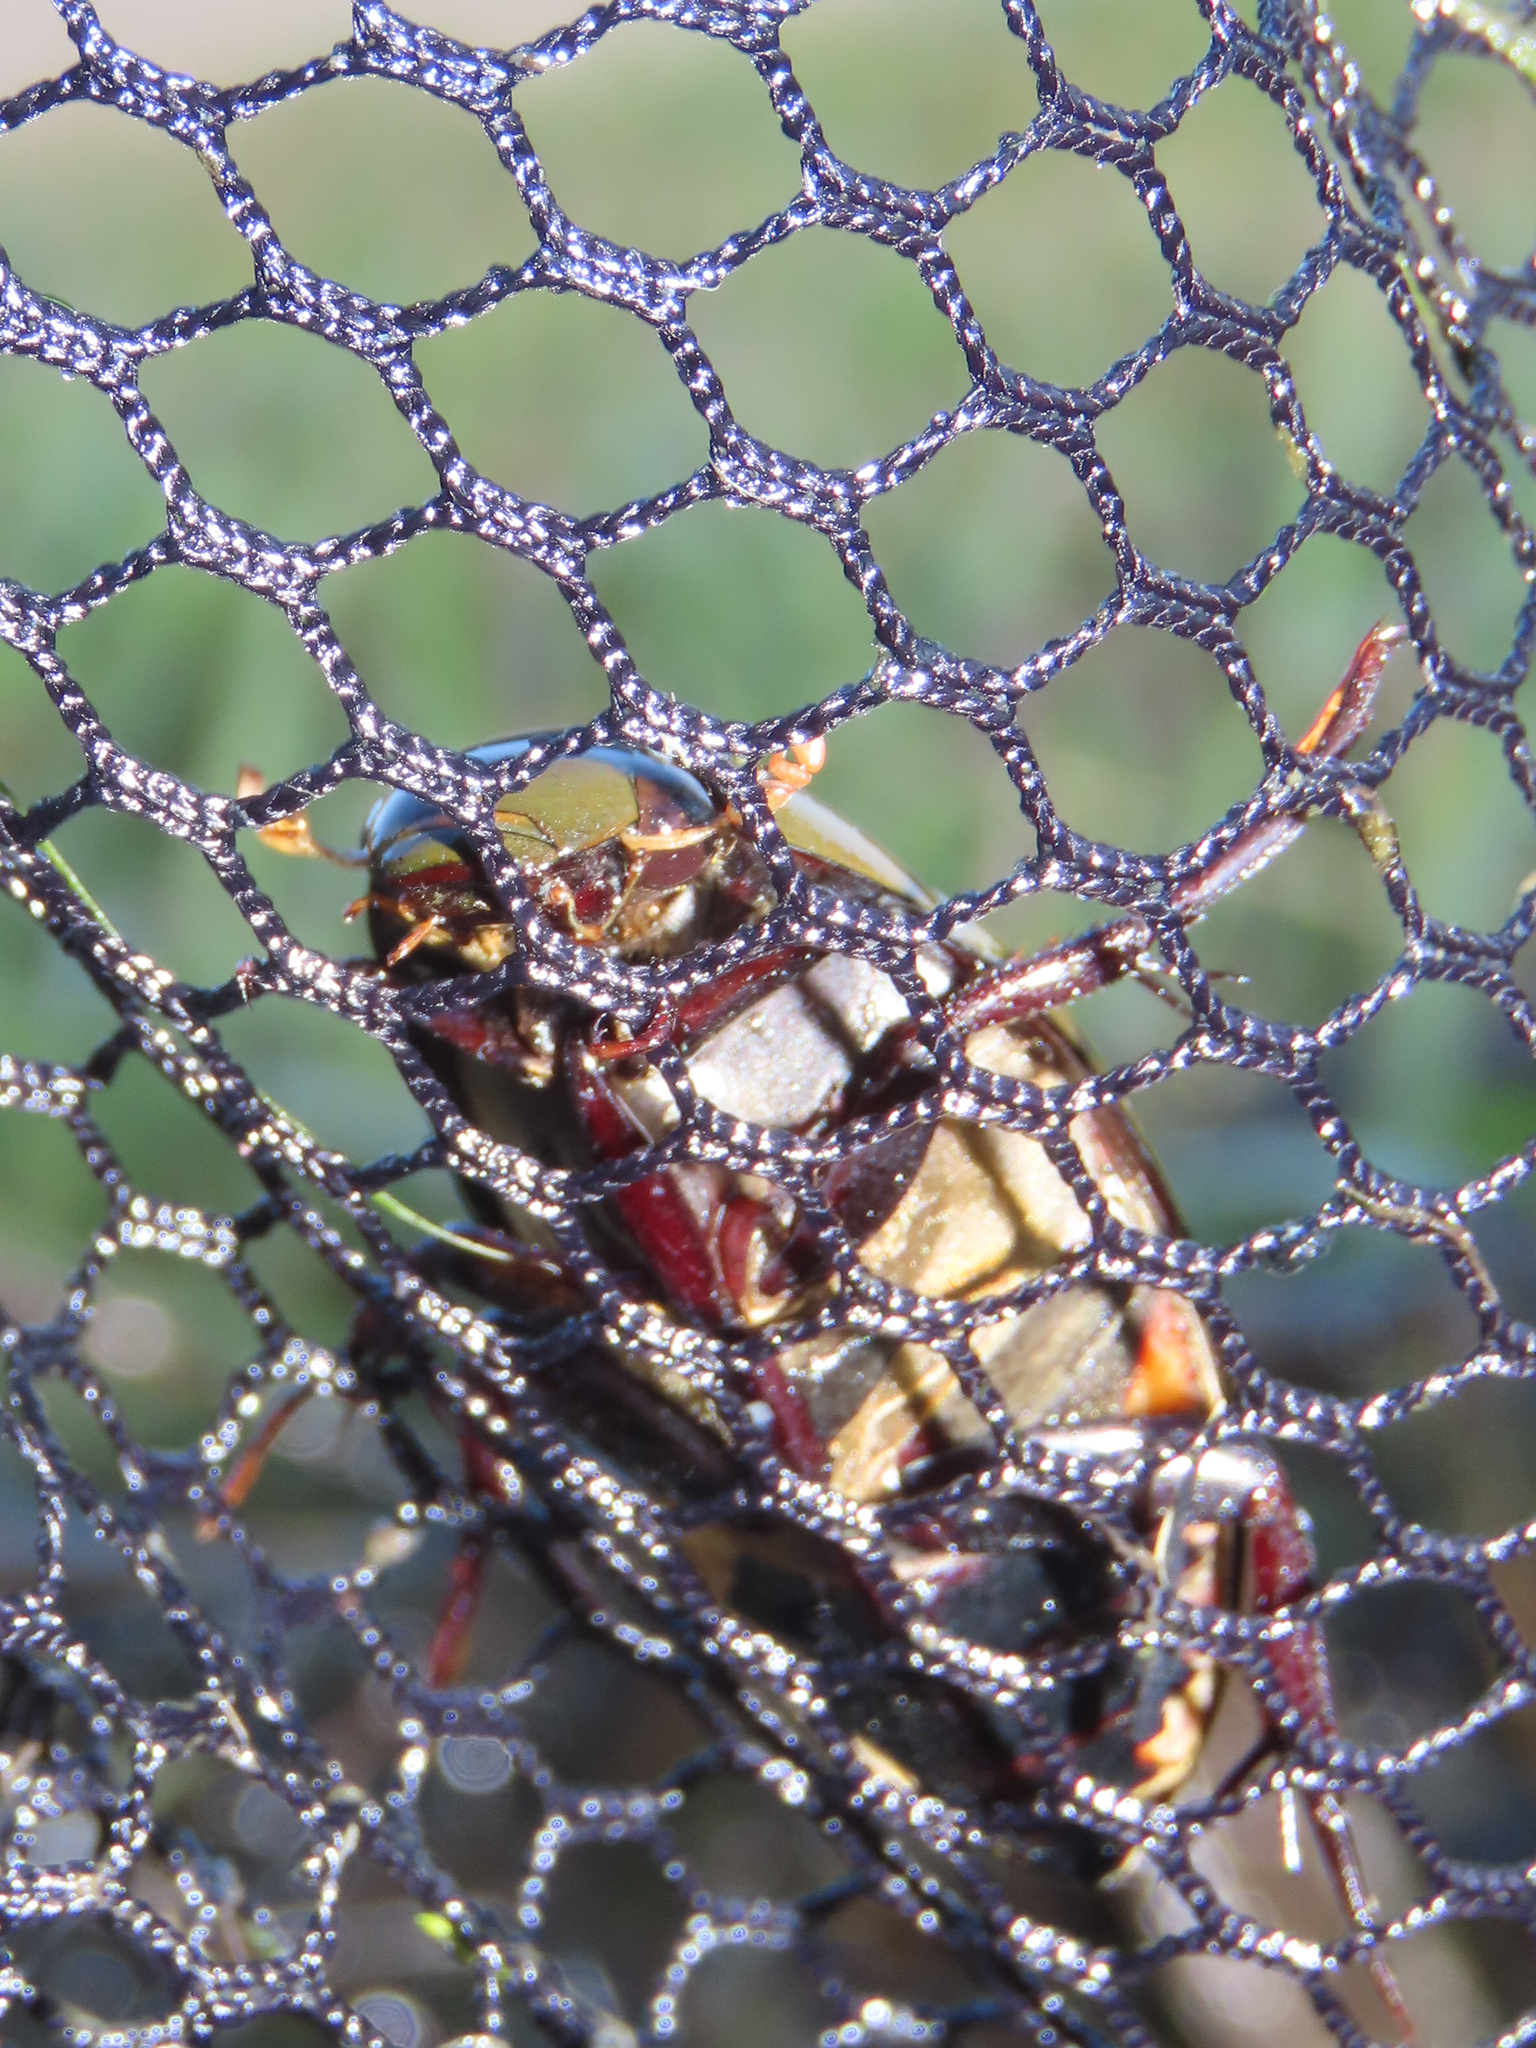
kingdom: Animalia
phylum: Arthropoda
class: Insecta
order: Coleoptera
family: Hydrophilidae
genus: Hydrophilus
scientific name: Hydrophilus triangularis
